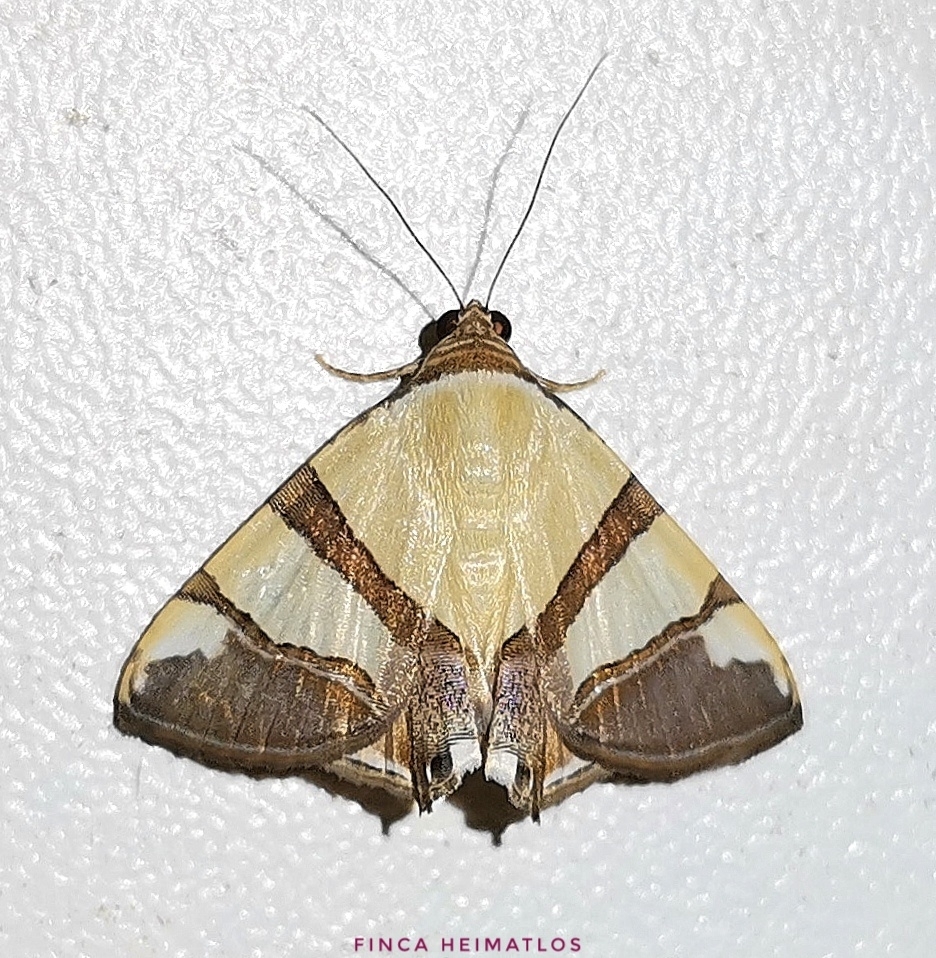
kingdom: Animalia
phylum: Arthropoda
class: Insecta
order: Lepidoptera
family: Erebidae
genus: Eulepidotis
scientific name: Eulepidotis julianata
